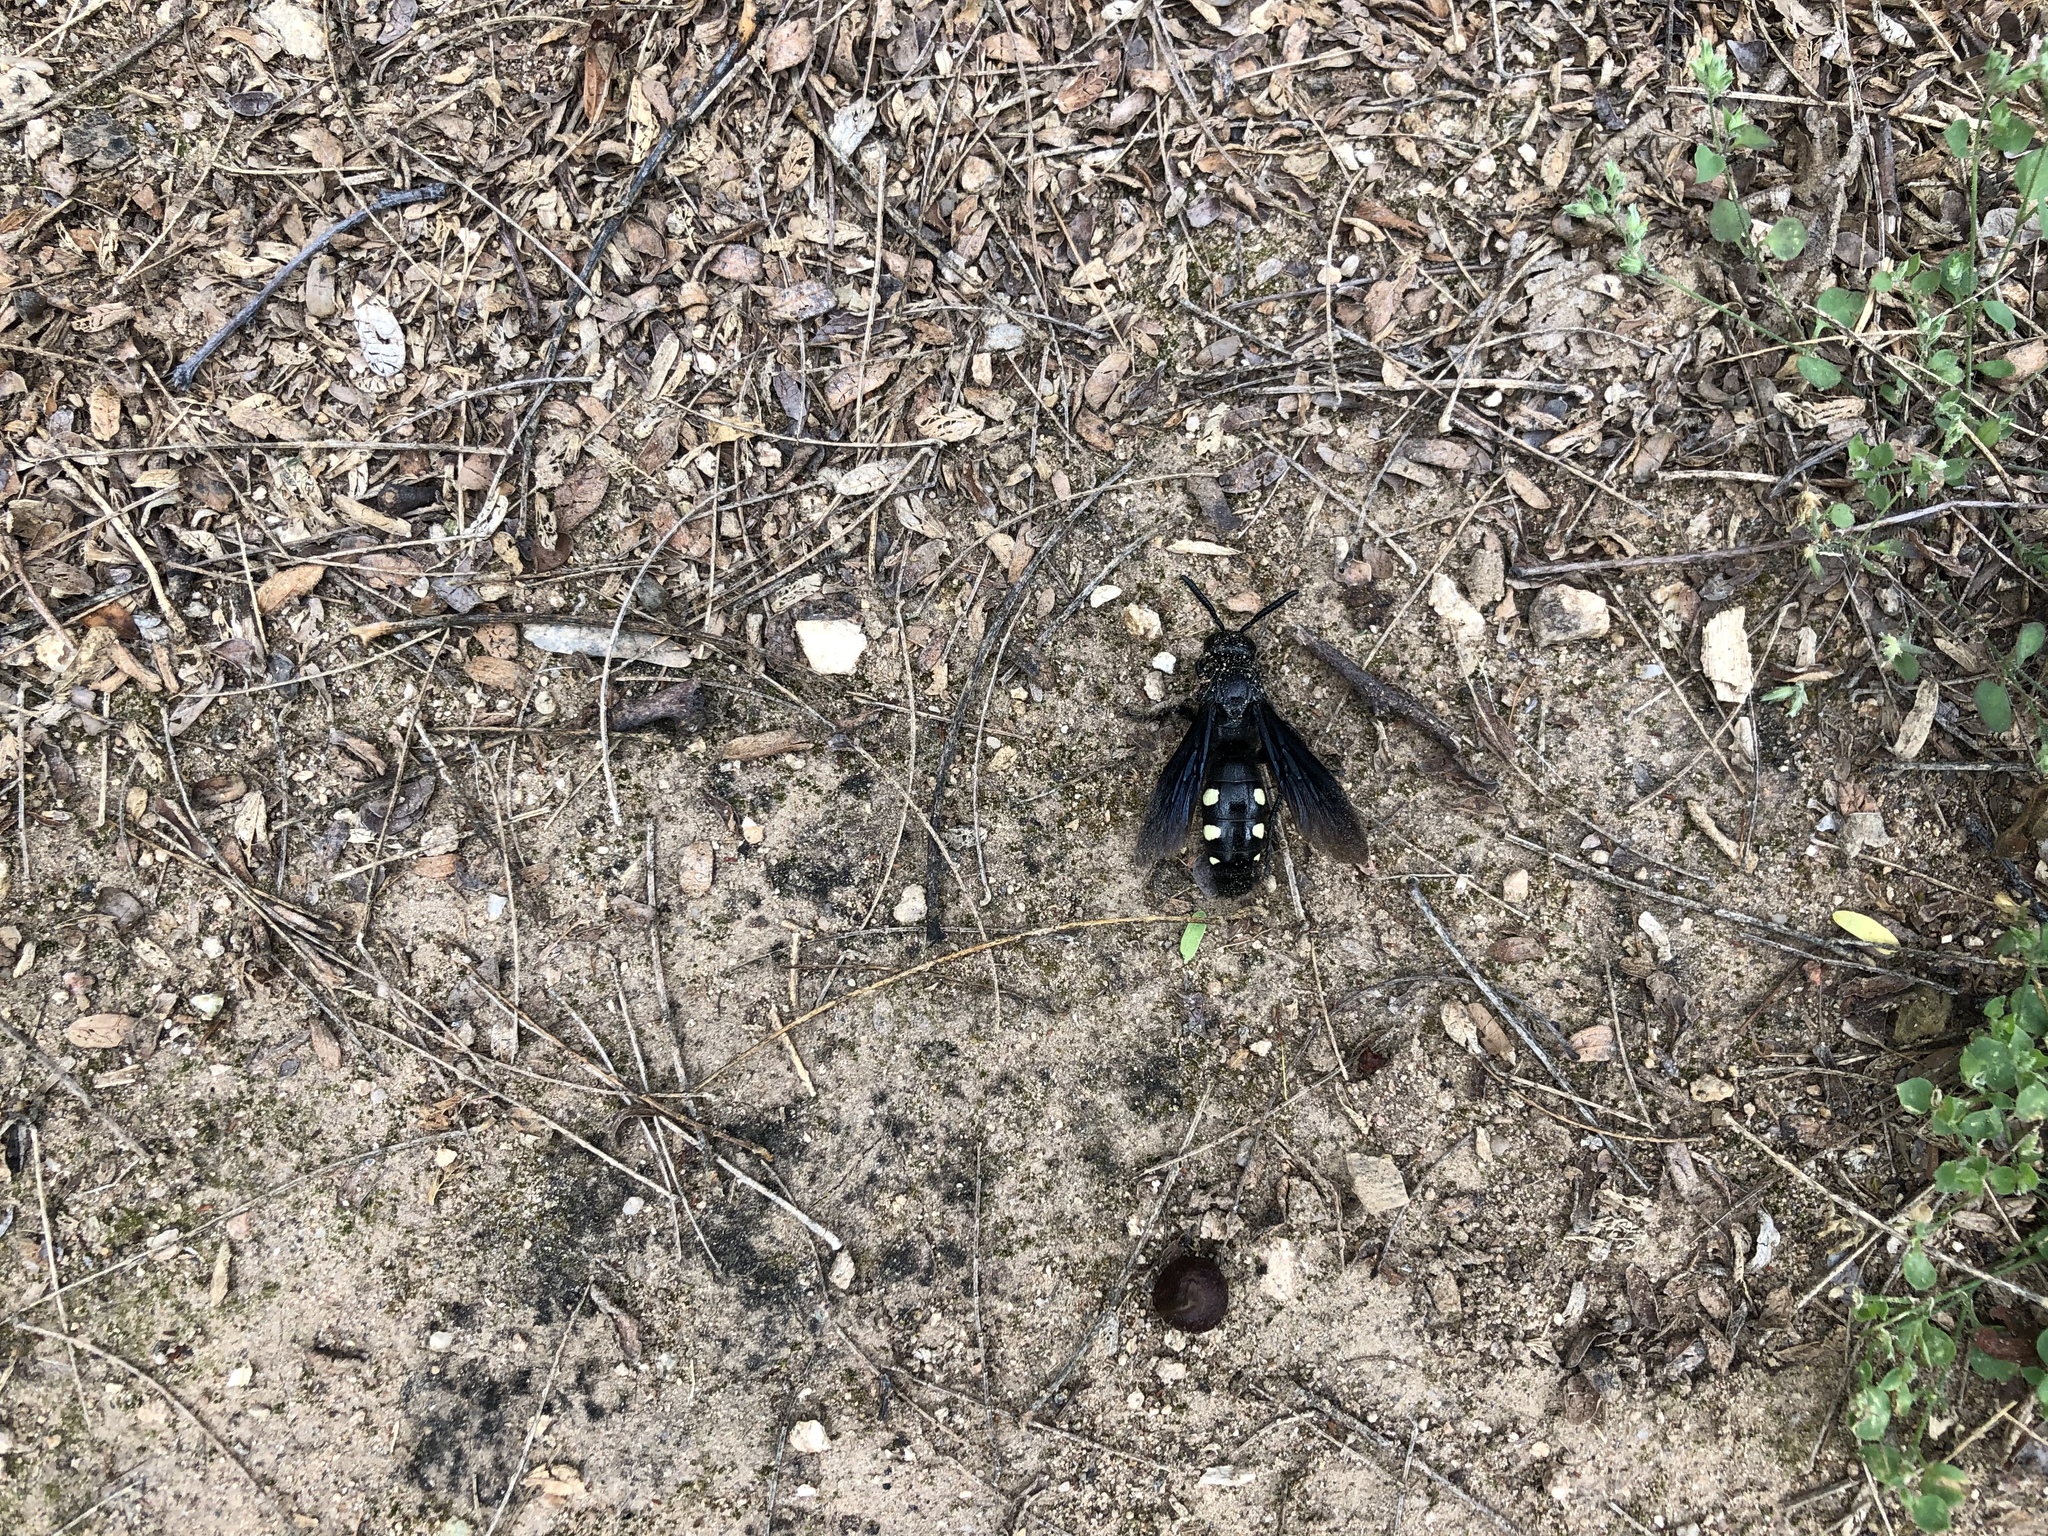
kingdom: Animalia
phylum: Arthropoda
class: Insecta
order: Hymenoptera
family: Scoliidae
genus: Scolia
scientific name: Scolia guttata
